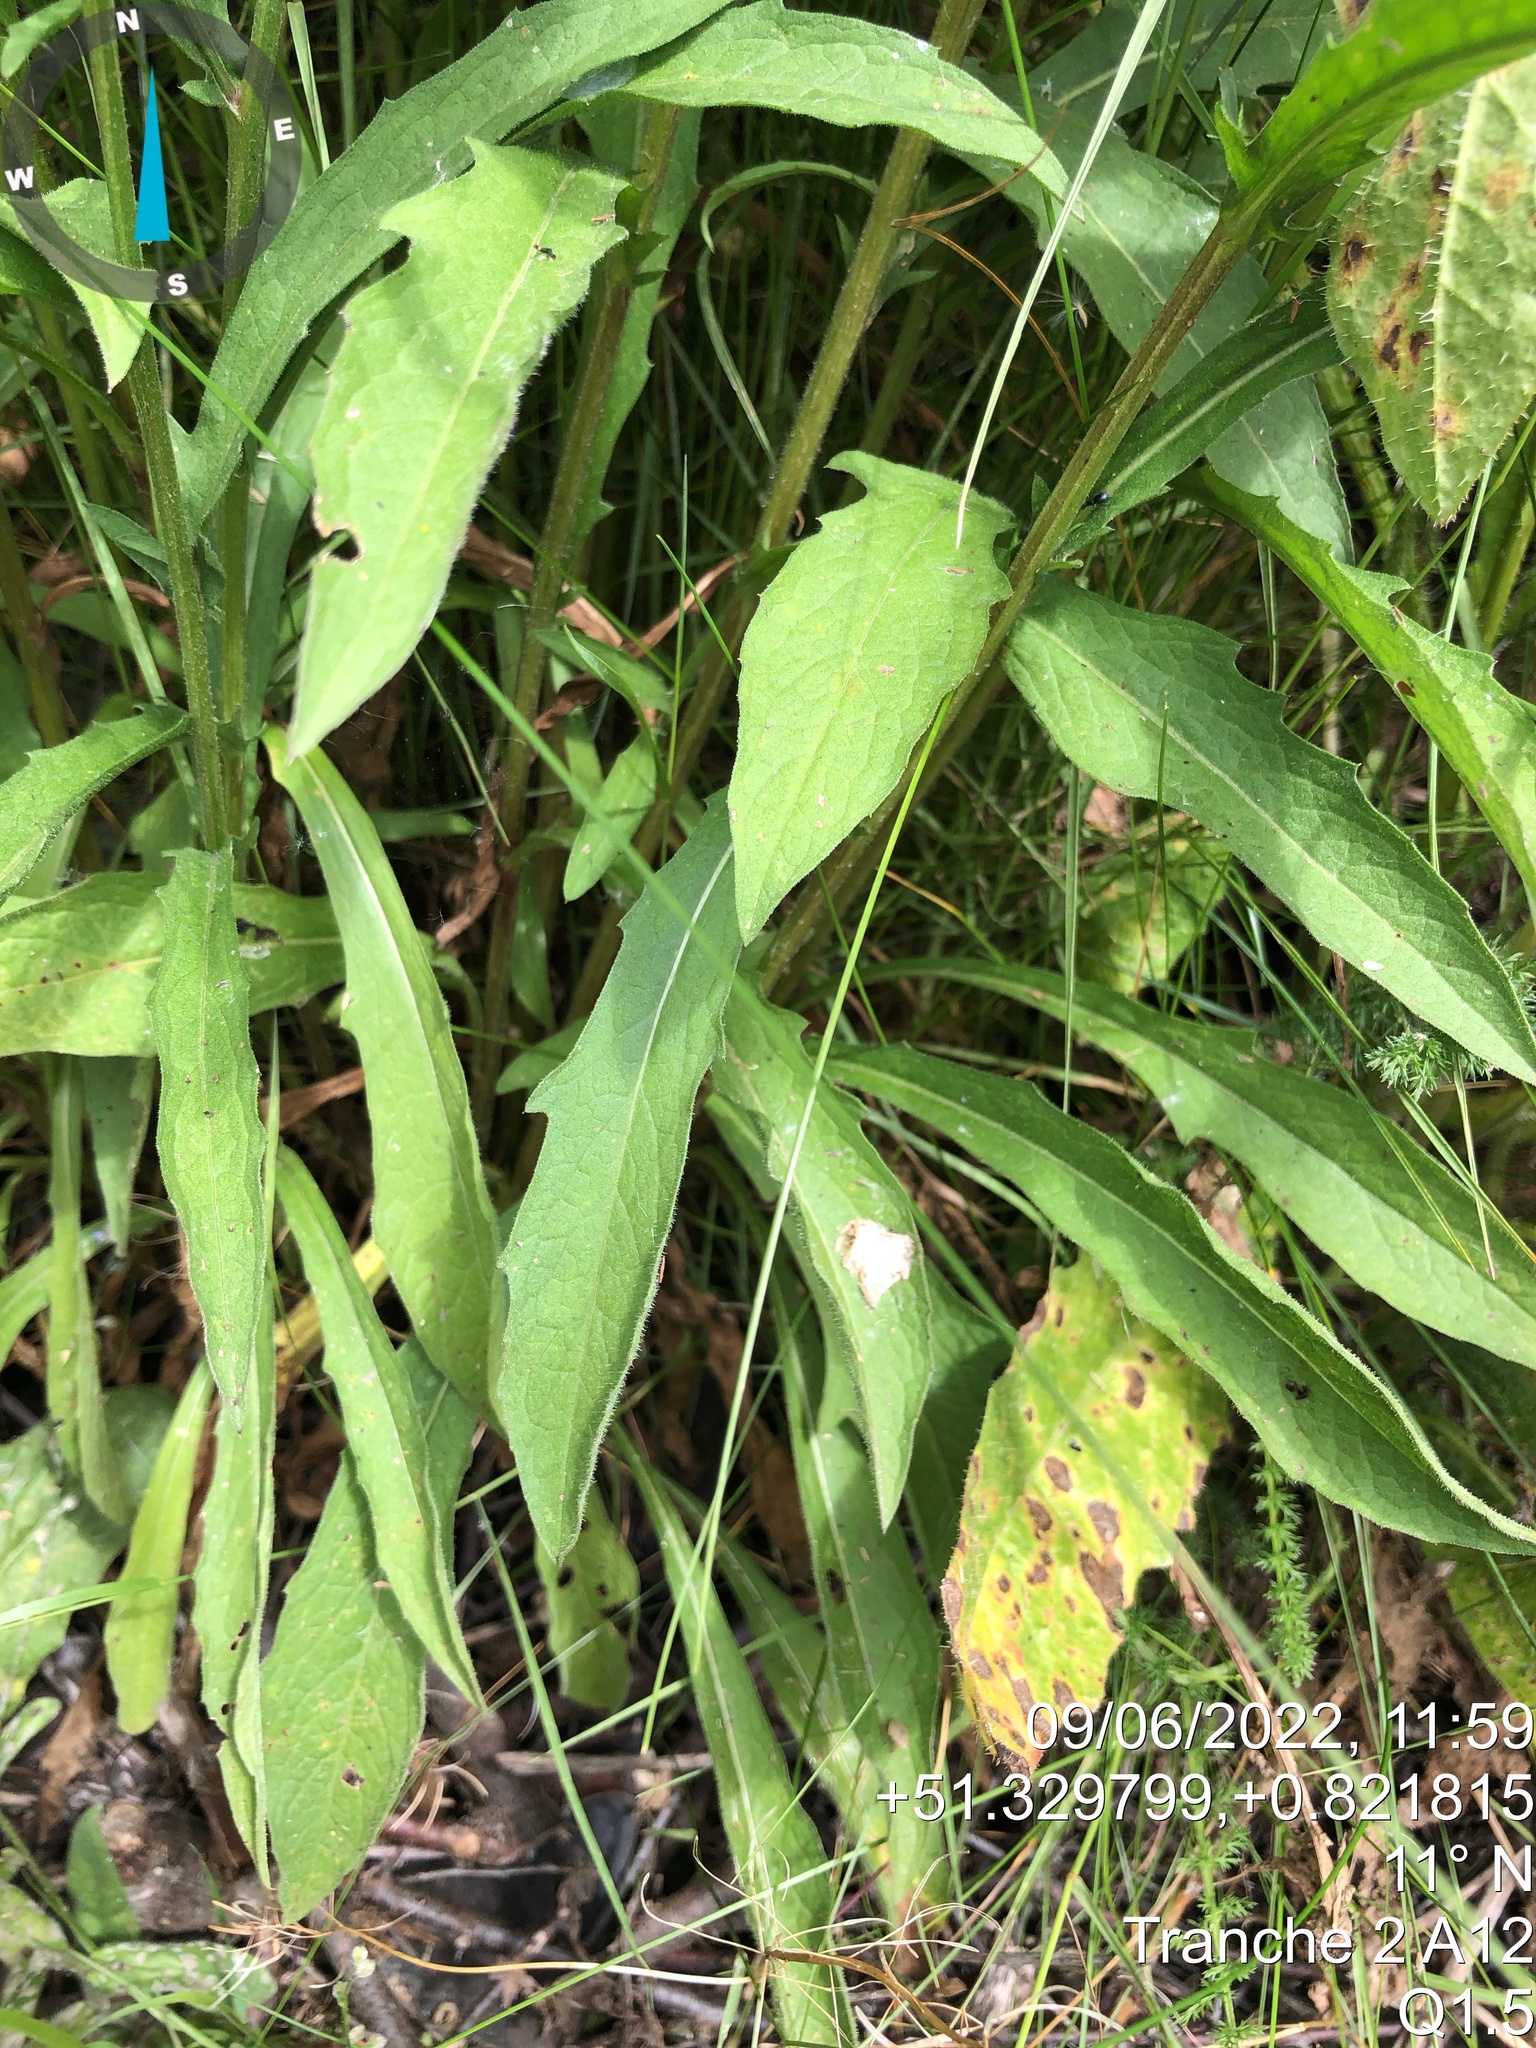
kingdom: Plantae
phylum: Tracheophyta
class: Magnoliopsida
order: Asterales
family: Asteraceae
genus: Centaurea
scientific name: Centaurea nigra
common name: Lesser knapweed
